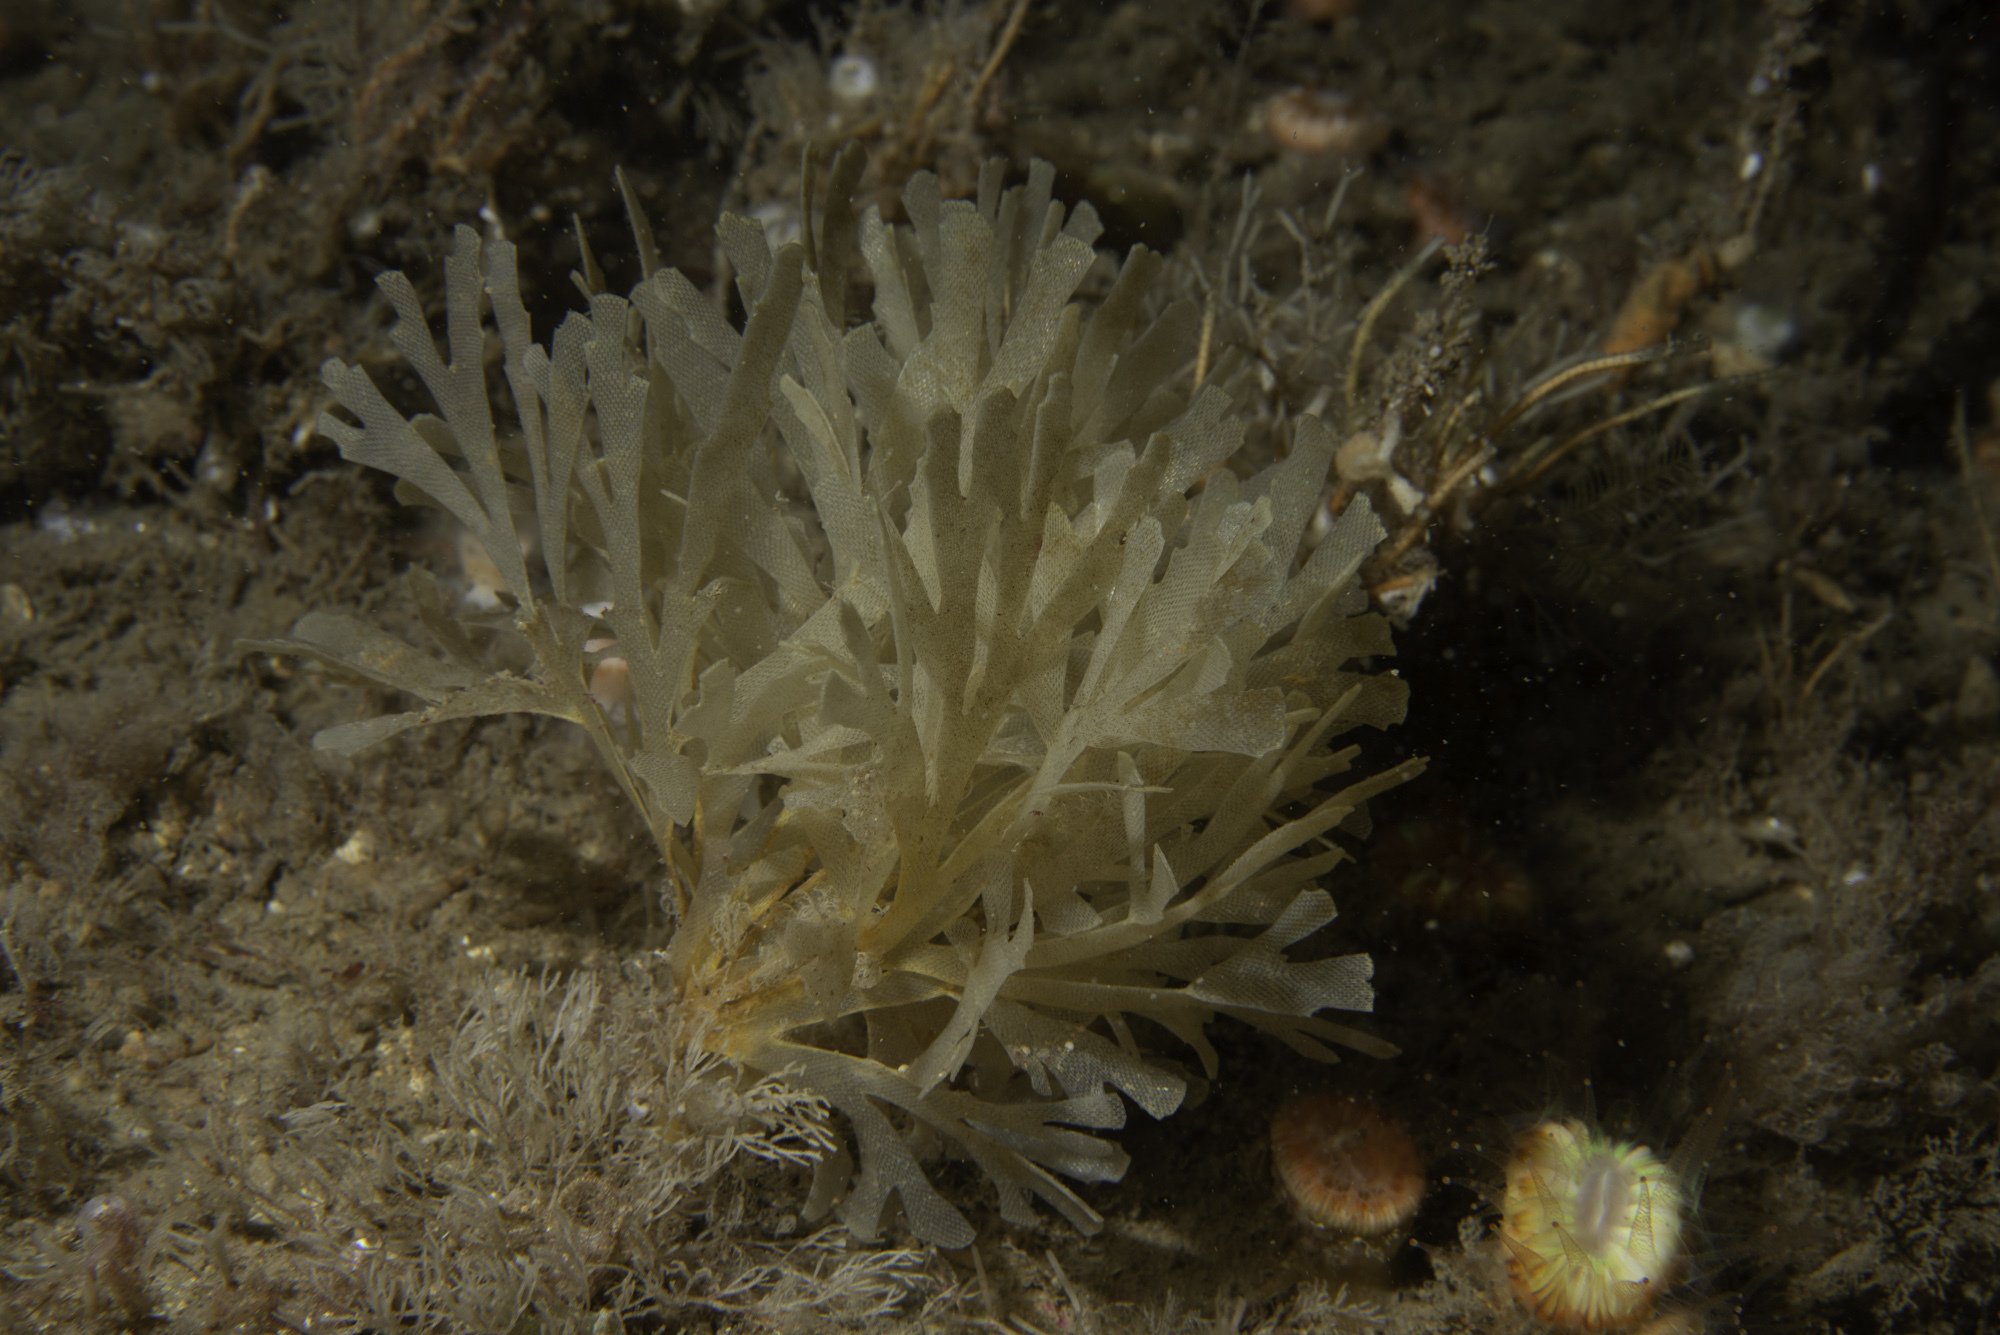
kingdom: Animalia
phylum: Bryozoa
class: Gymnolaemata
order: Cheilostomatida
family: Flustridae
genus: Securiflustra
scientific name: Securiflustra securifrons
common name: Narrow-leaved hornwrack
